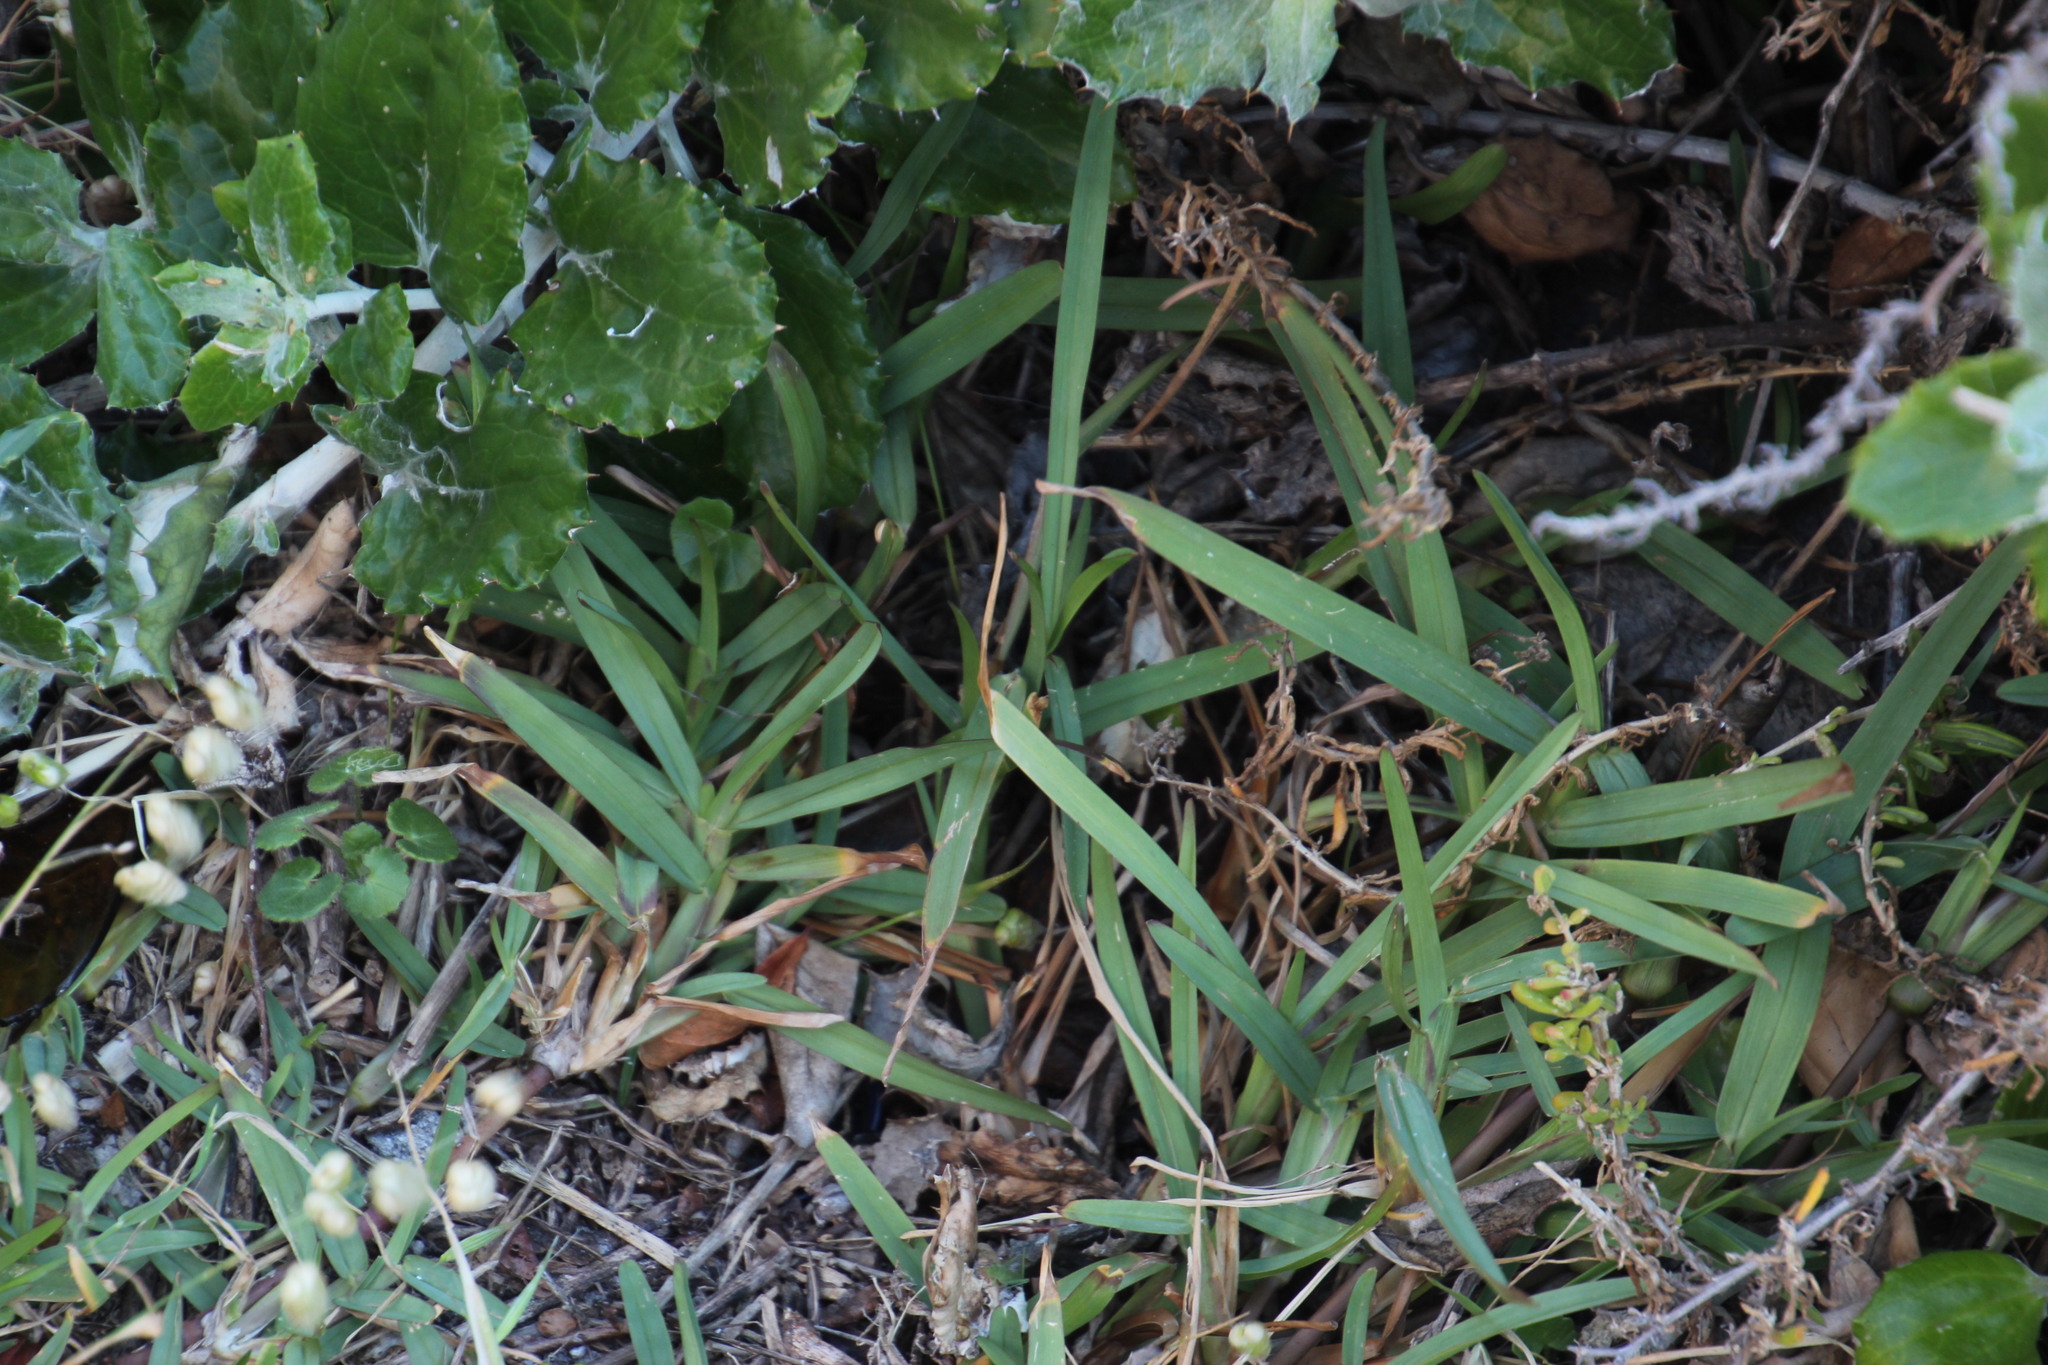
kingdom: Plantae
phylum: Tracheophyta
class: Liliopsida
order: Poales
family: Poaceae
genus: Stenotaphrum
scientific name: Stenotaphrum secundatum
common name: St. augustine grass
